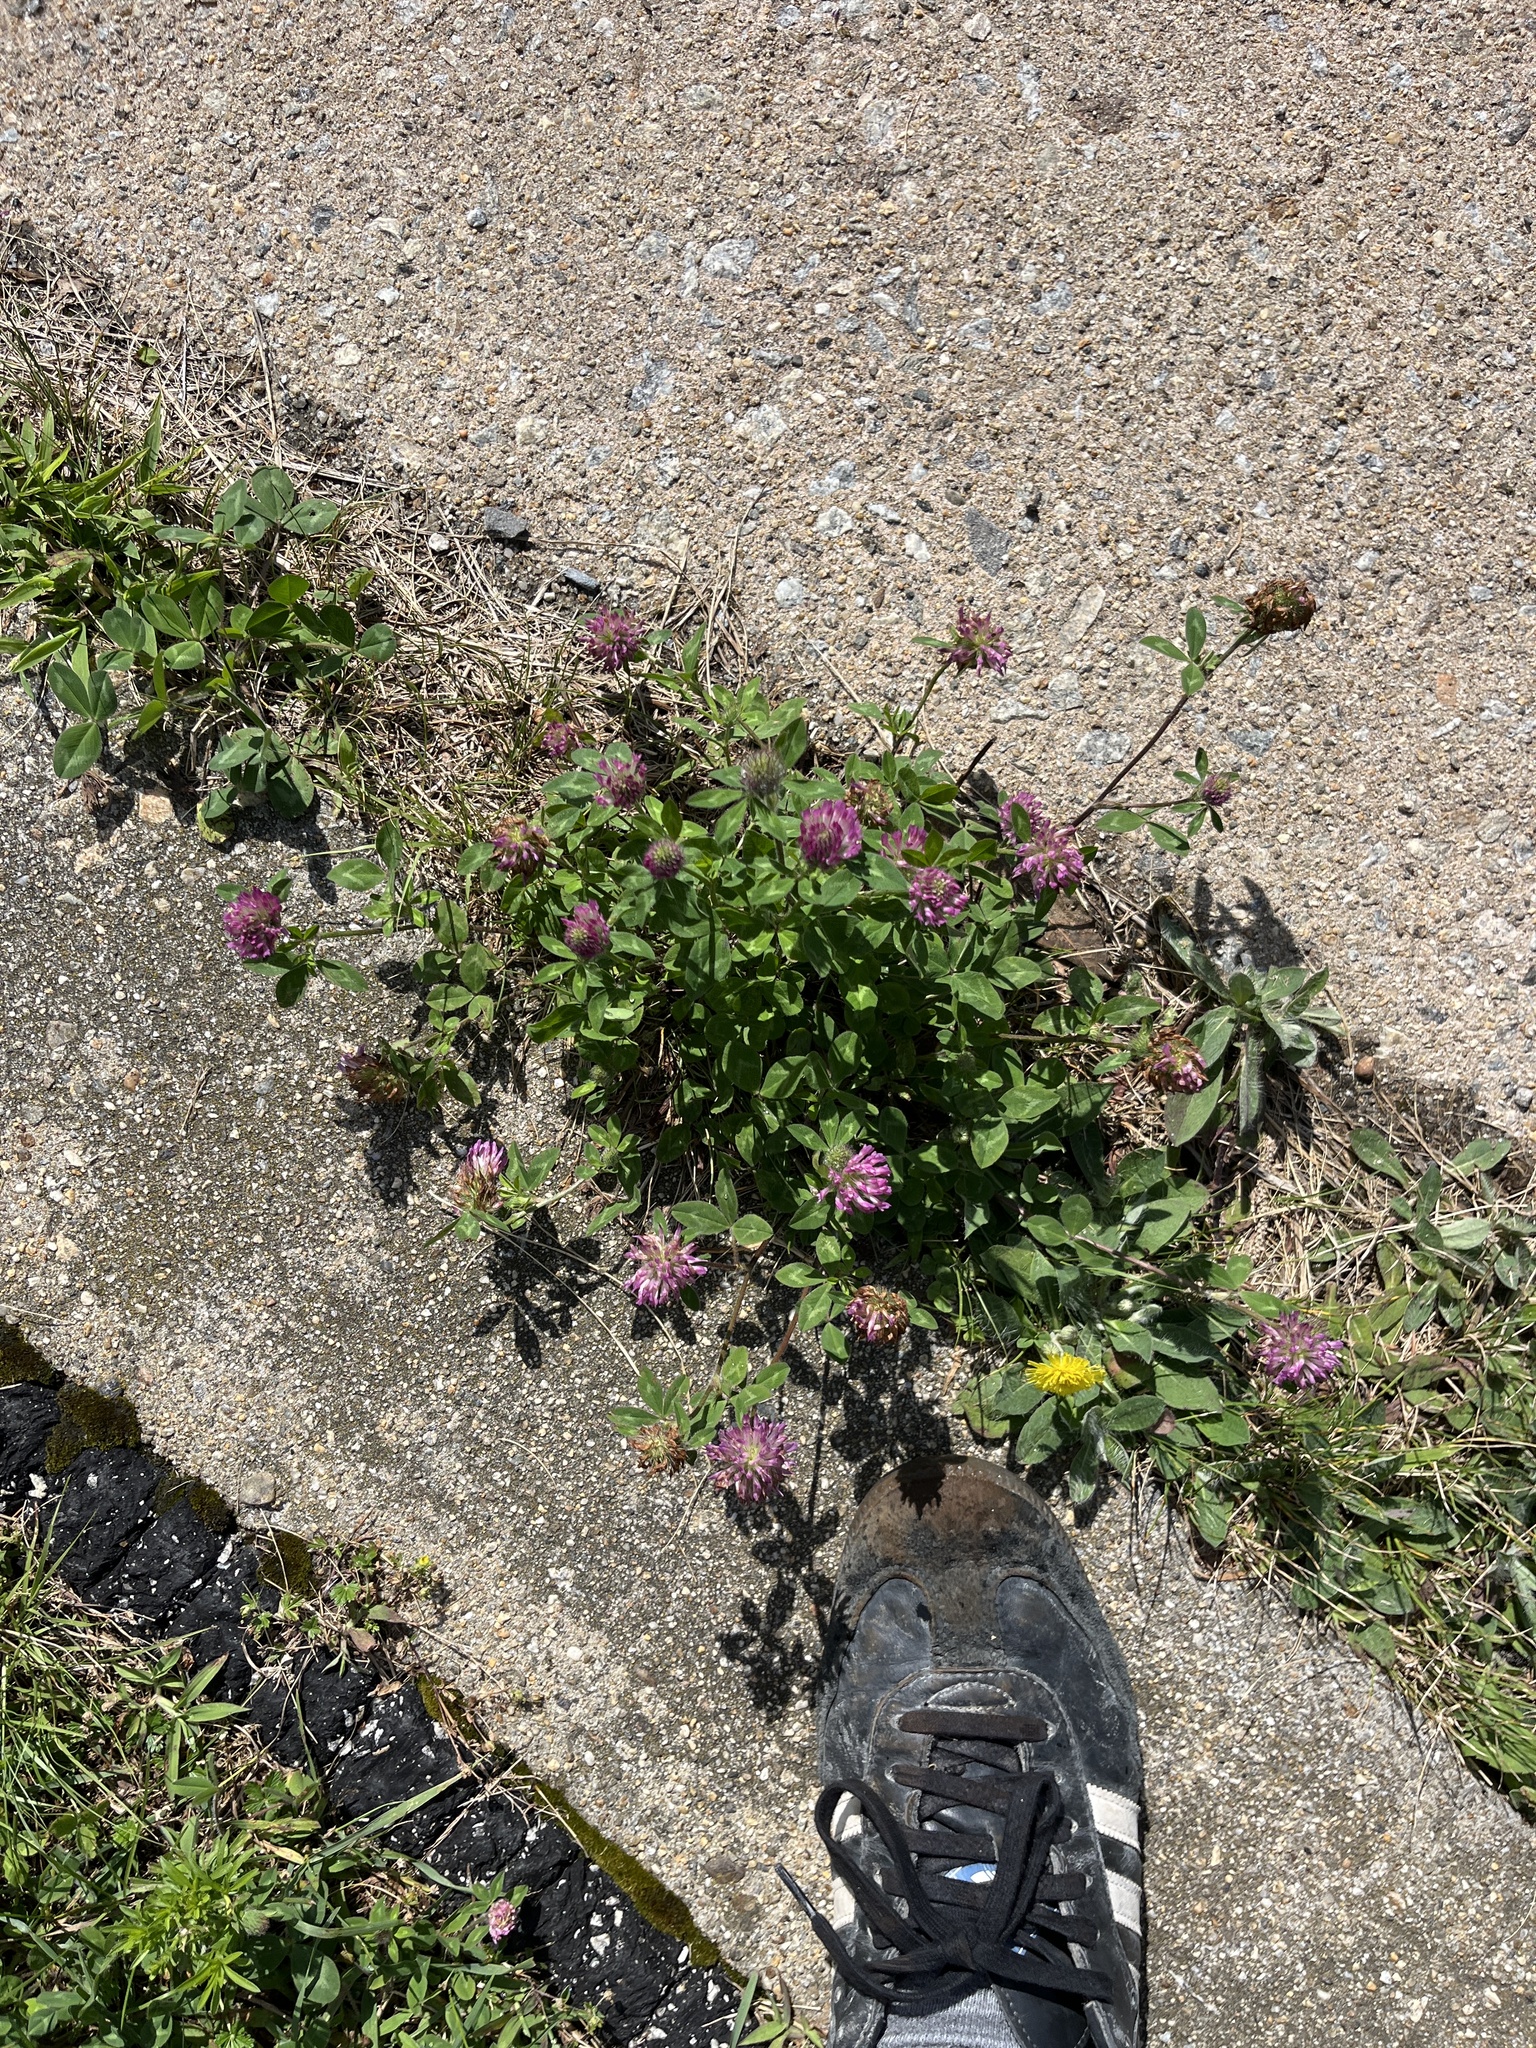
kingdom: Plantae
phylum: Tracheophyta
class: Magnoliopsida
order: Fabales
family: Fabaceae
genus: Trifolium
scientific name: Trifolium pratense
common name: Red clover
